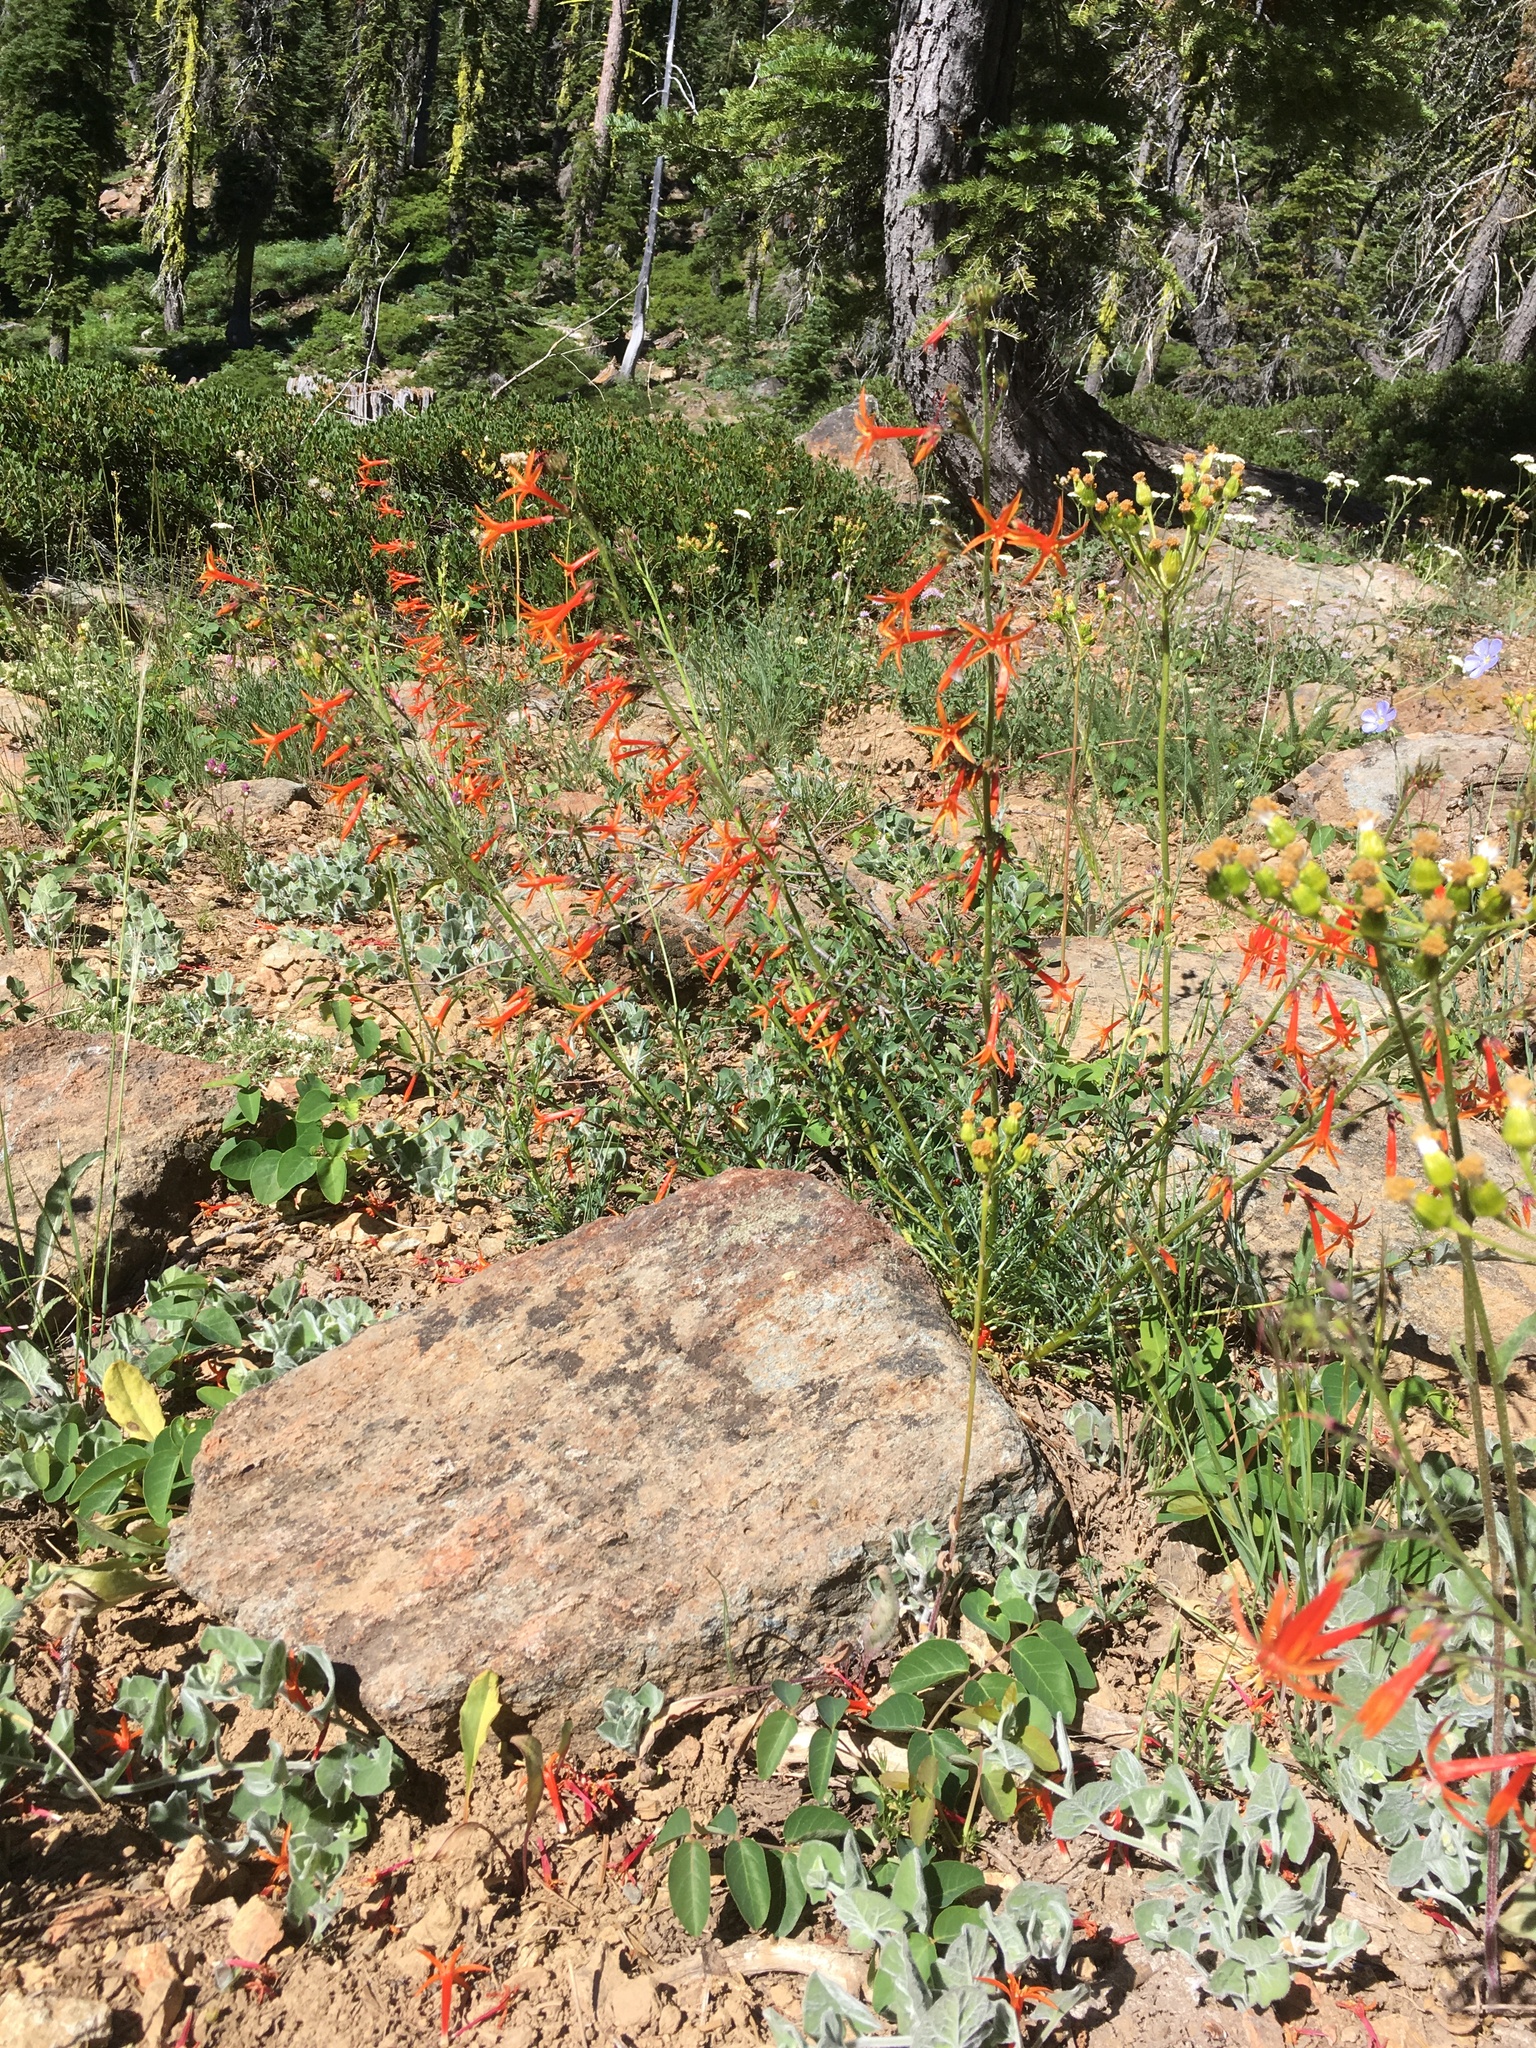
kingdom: Plantae
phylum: Tracheophyta
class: Magnoliopsida
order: Ericales
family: Polemoniaceae
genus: Ipomopsis
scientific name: Ipomopsis aggregata
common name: Scarlet gilia
